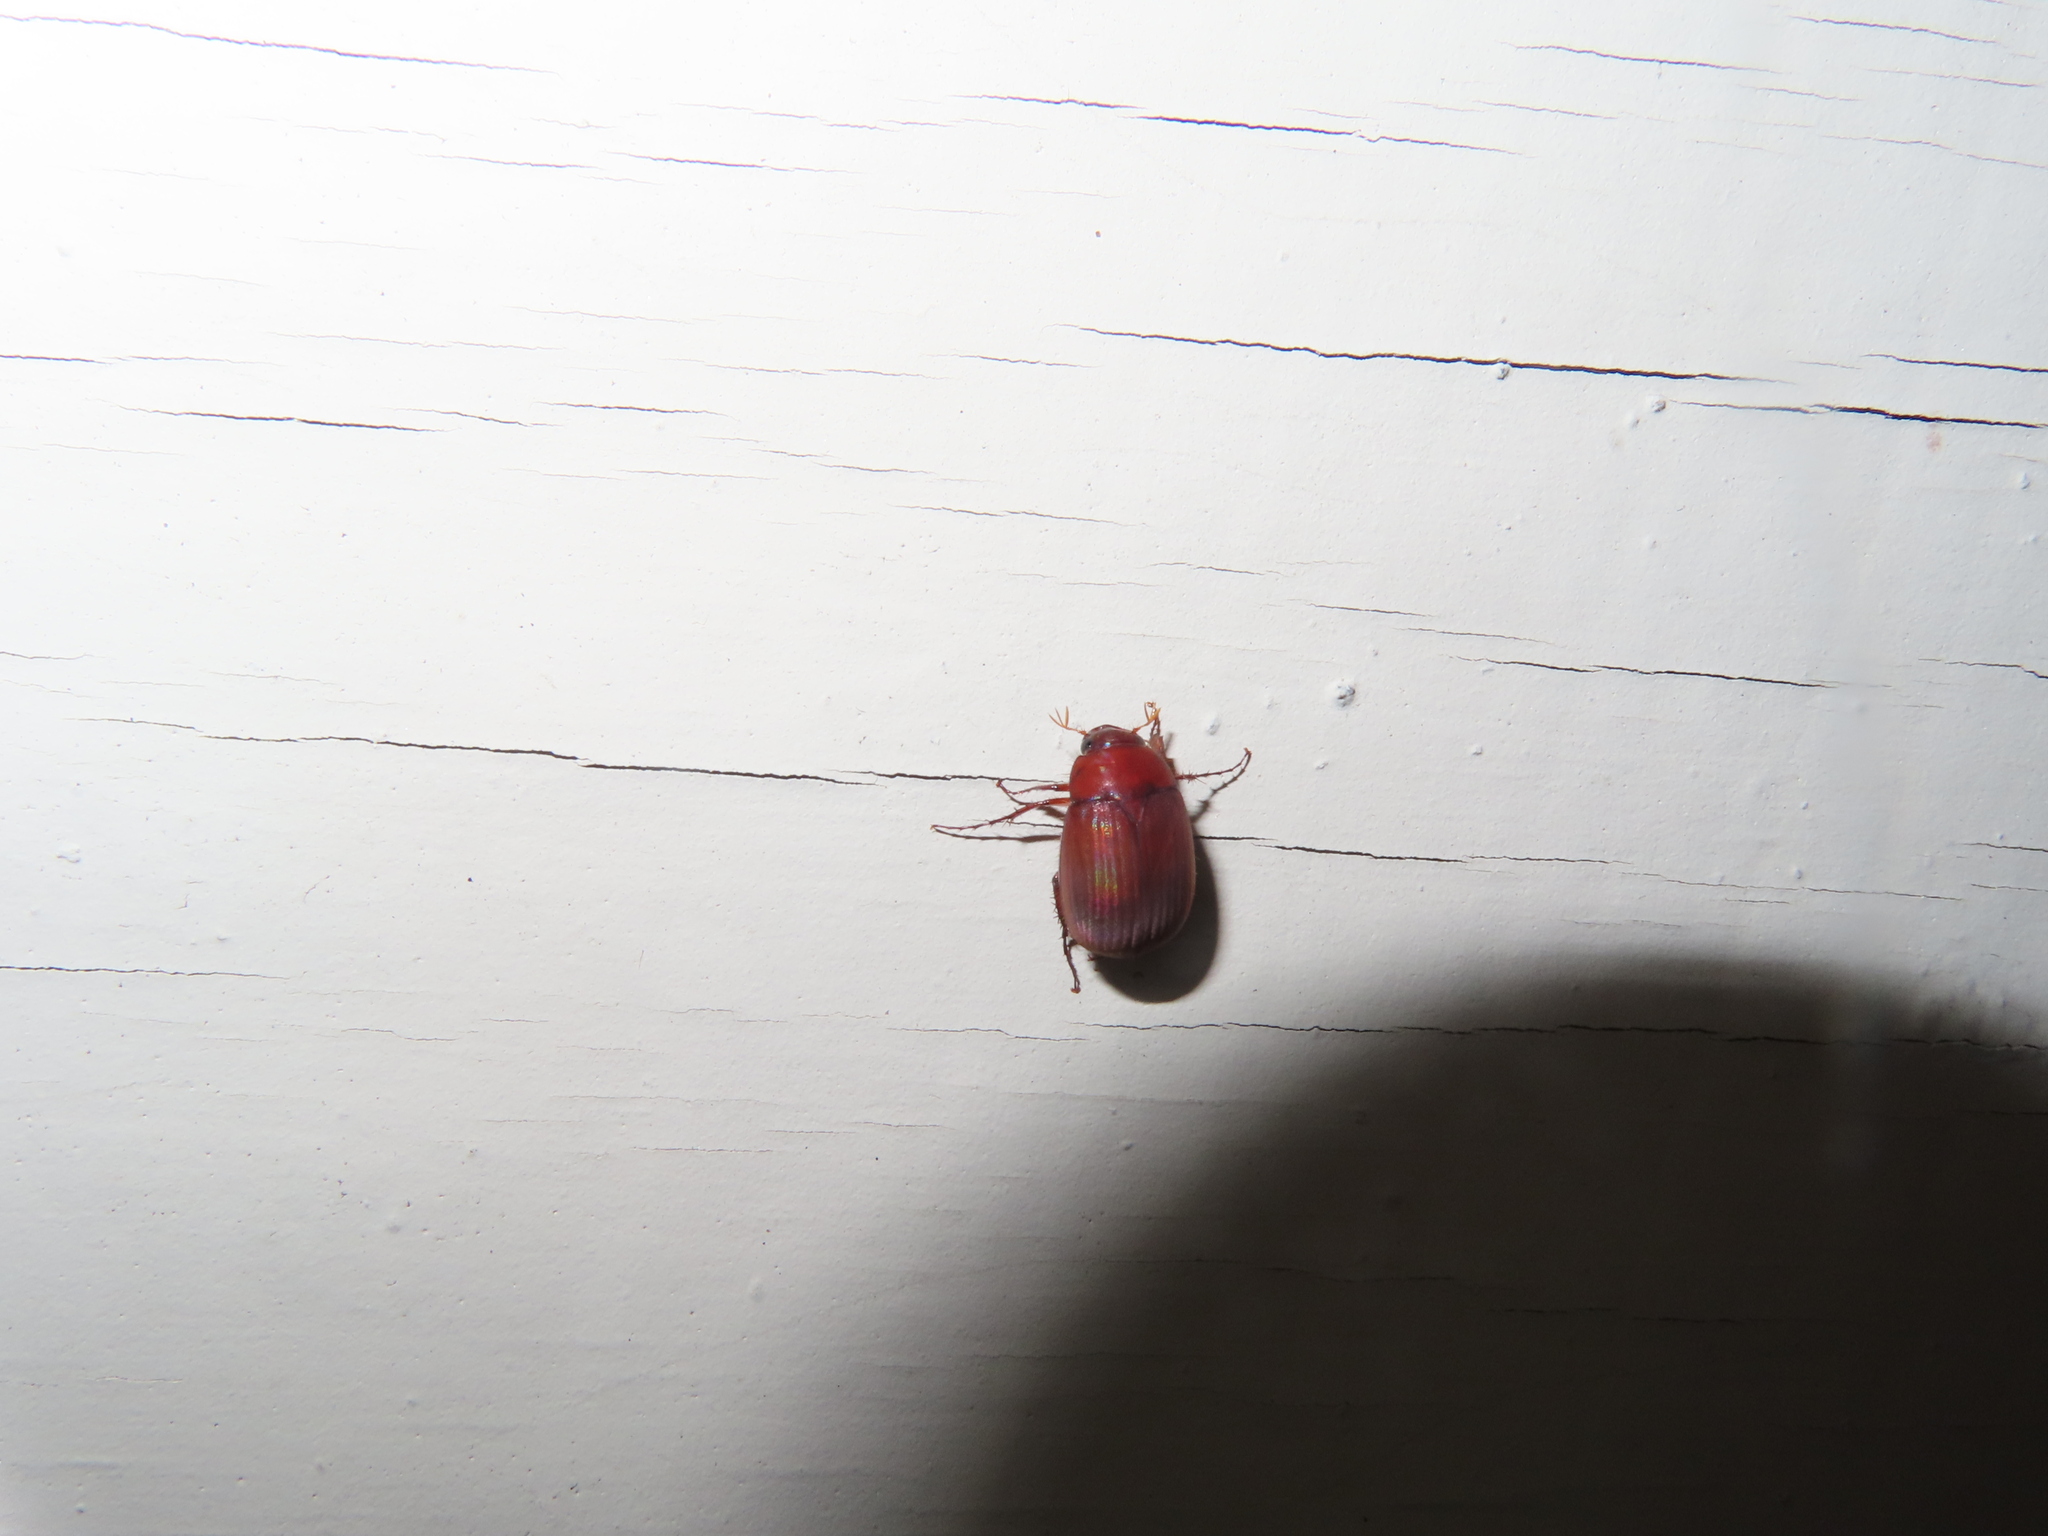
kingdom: Animalia
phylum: Arthropoda
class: Insecta
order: Coleoptera
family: Scarabaeidae
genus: Maladera
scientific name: Maladera formosae
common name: Asiatic garden beetle
